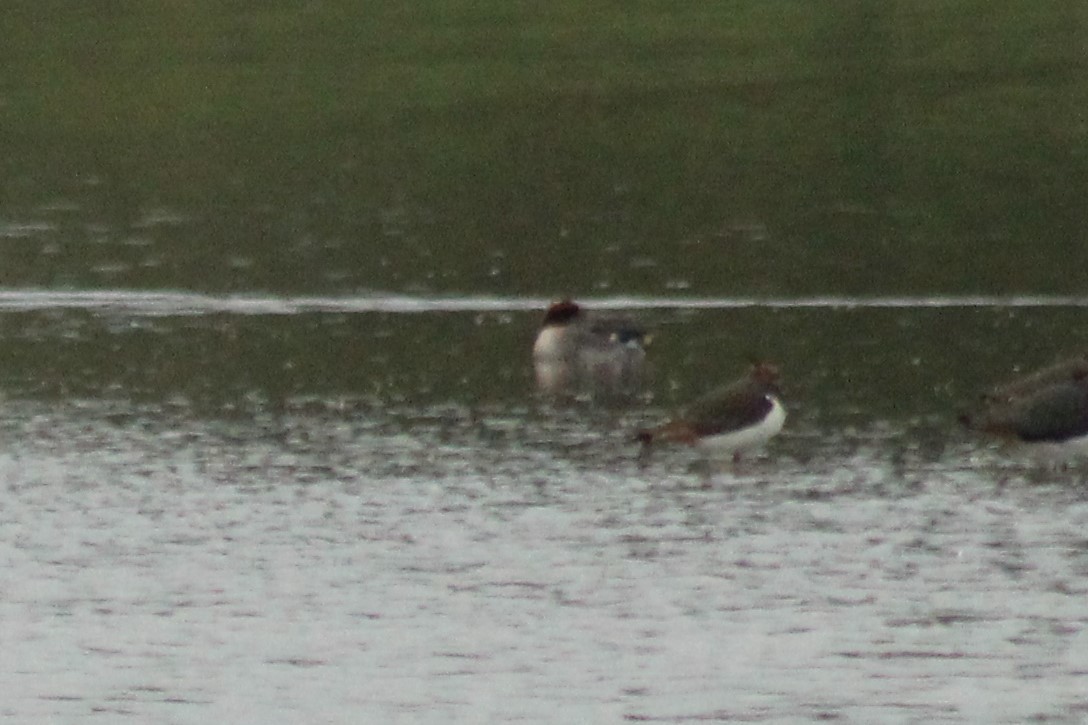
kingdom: Animalia
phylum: Chordata
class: Aves
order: Anseriformes
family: Anatidae
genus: Anas
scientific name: Anas crecca
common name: Eurasian teal
